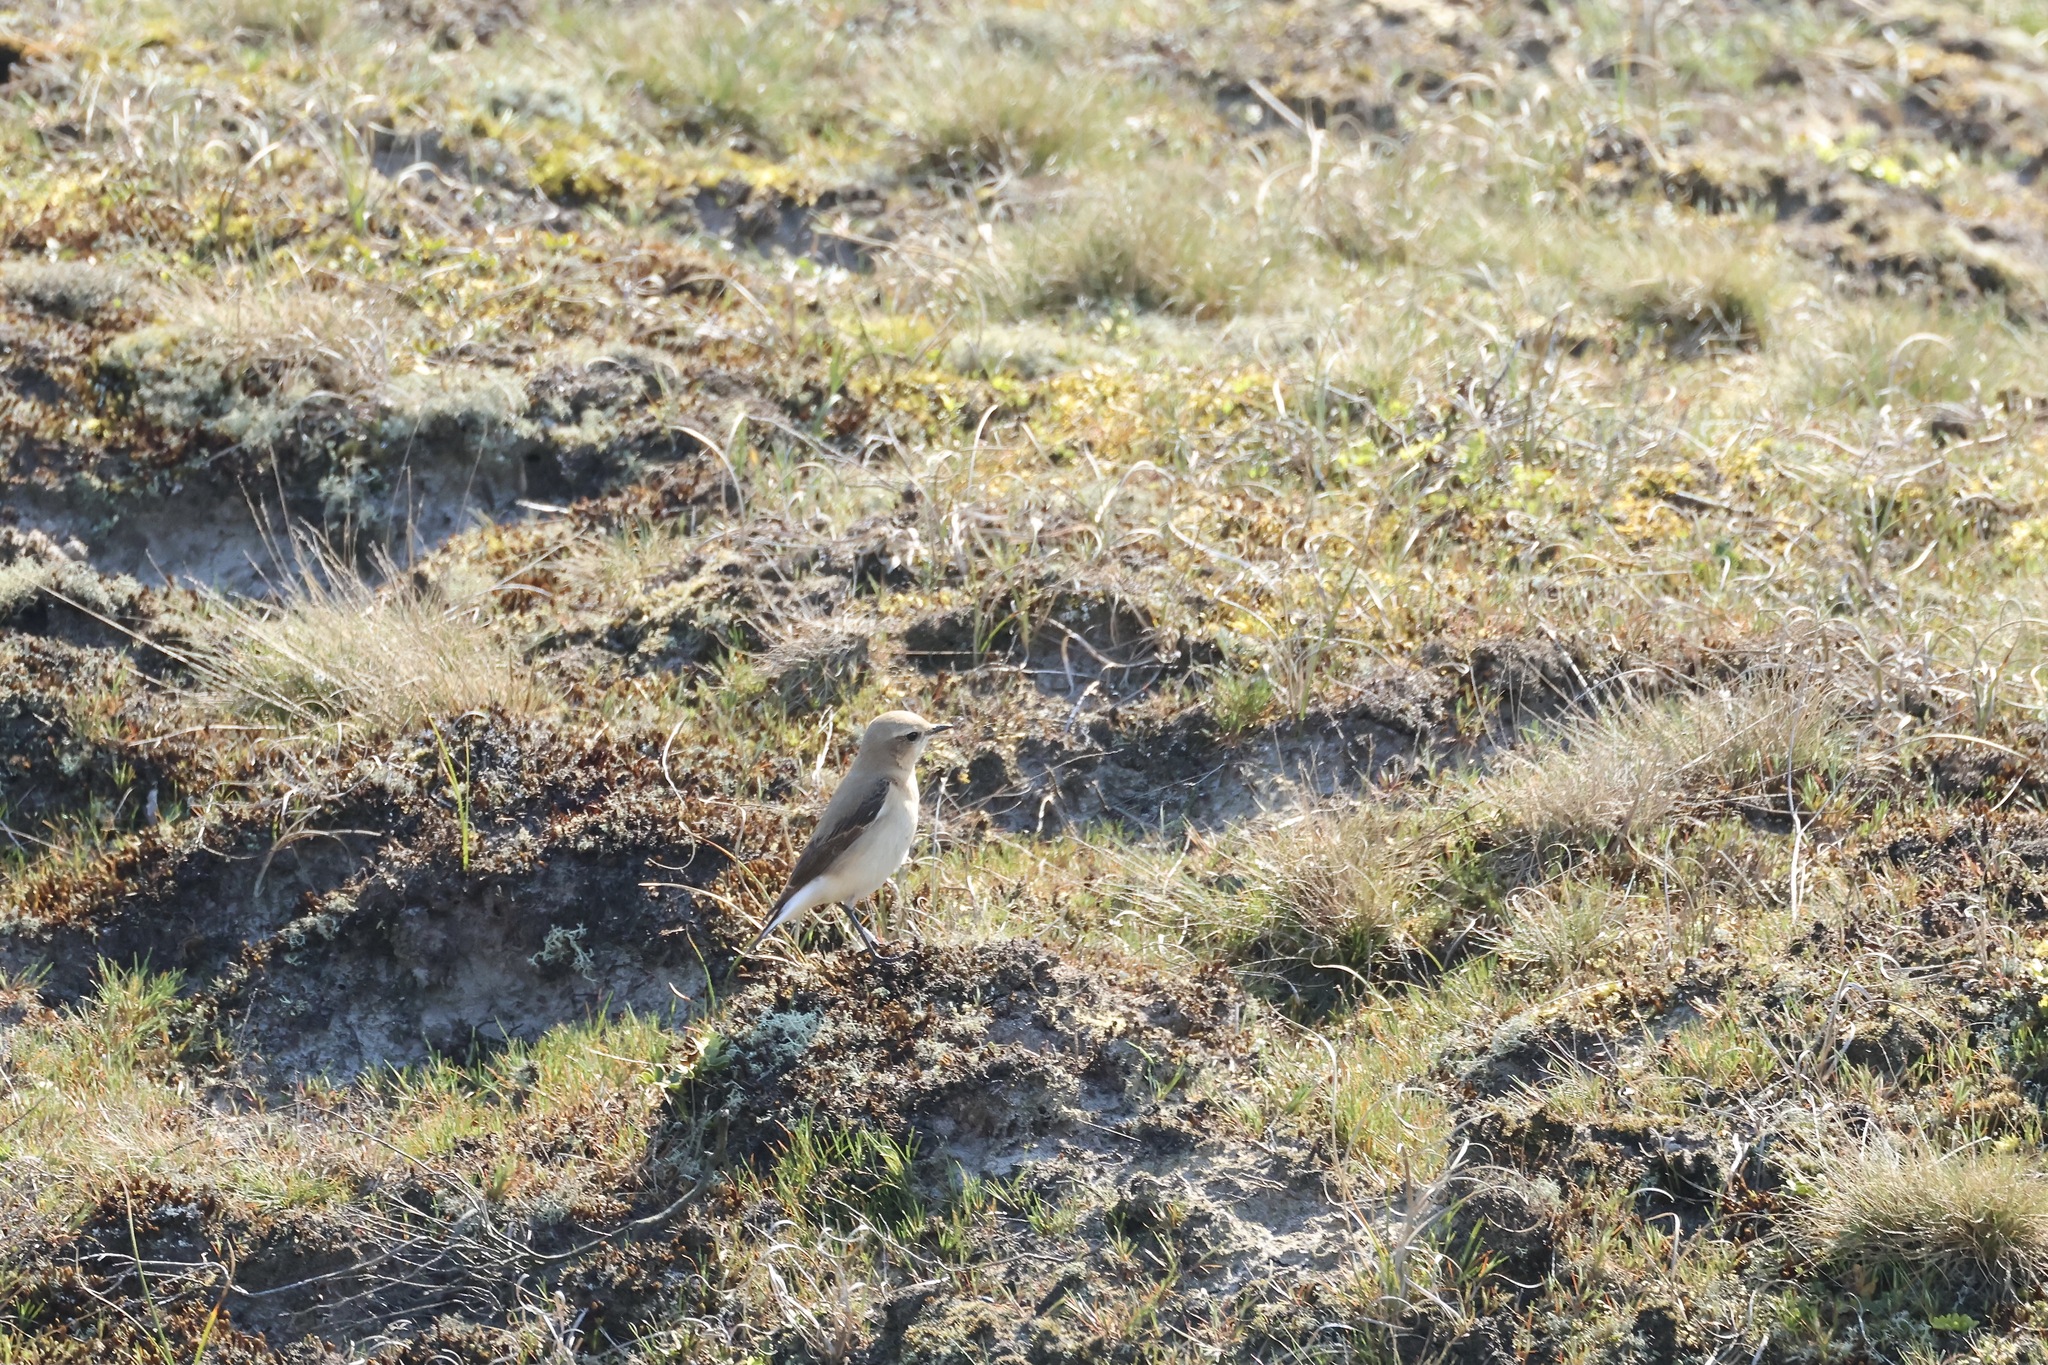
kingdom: Animalia
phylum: Chordata
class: Aves
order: Passeriformes
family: Muscicapidae
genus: Oenanthe
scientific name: Oenanthe oenanthe
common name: Northern wheatear
